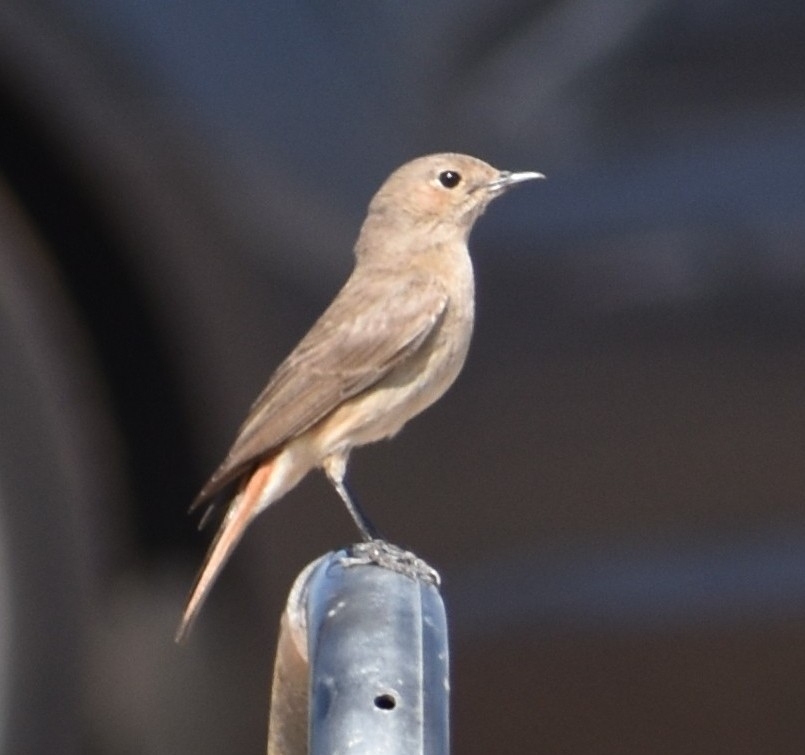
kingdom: Animalia
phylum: Chordata
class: Aves
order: Passeriformes
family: Muscicapidae
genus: Oenanthe
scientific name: Oenanthe familiaris
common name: Familiar chat
